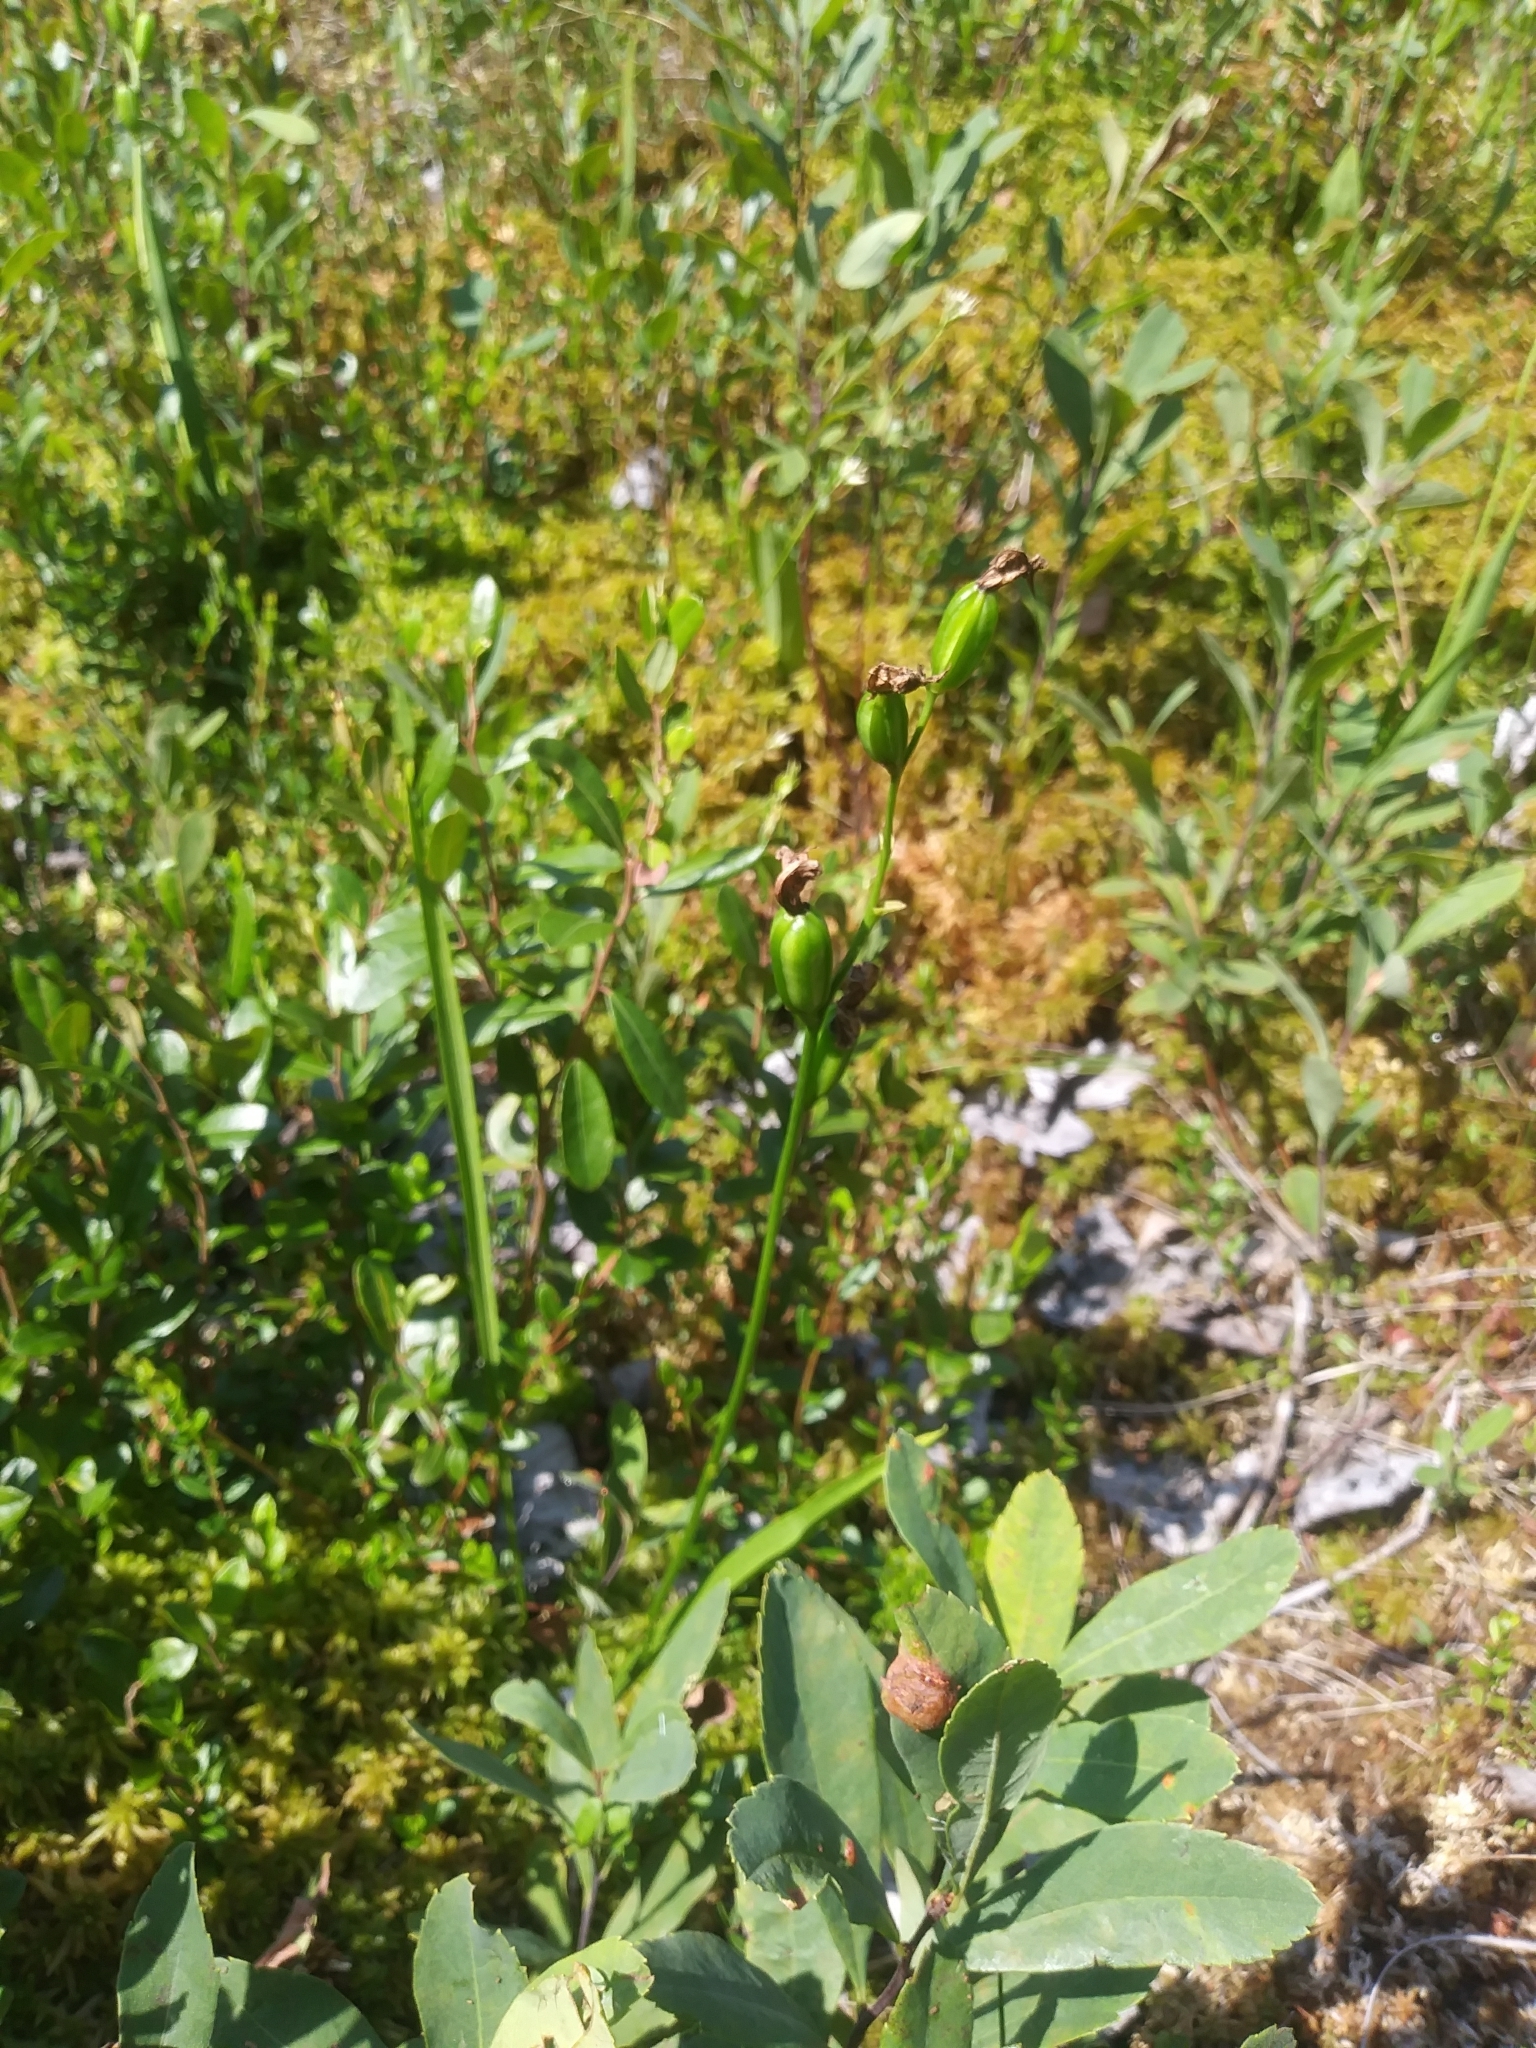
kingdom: Plantae
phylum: Tracheophyta
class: Liliopsida
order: Asparagales
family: Orchidaceae
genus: Calopogon
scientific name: Calopogon tuberosus
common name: Grass-pink
